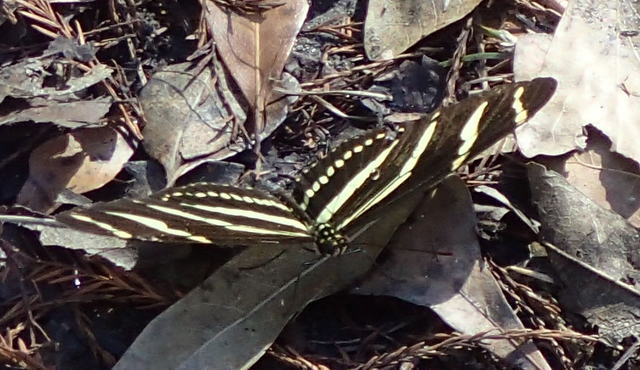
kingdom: Animalia
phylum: Arthropoda
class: Insecta
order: Lepidoptera
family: Nymphalidae
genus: Heliconius
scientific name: Heliconius charithonia
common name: Zebra long wing
